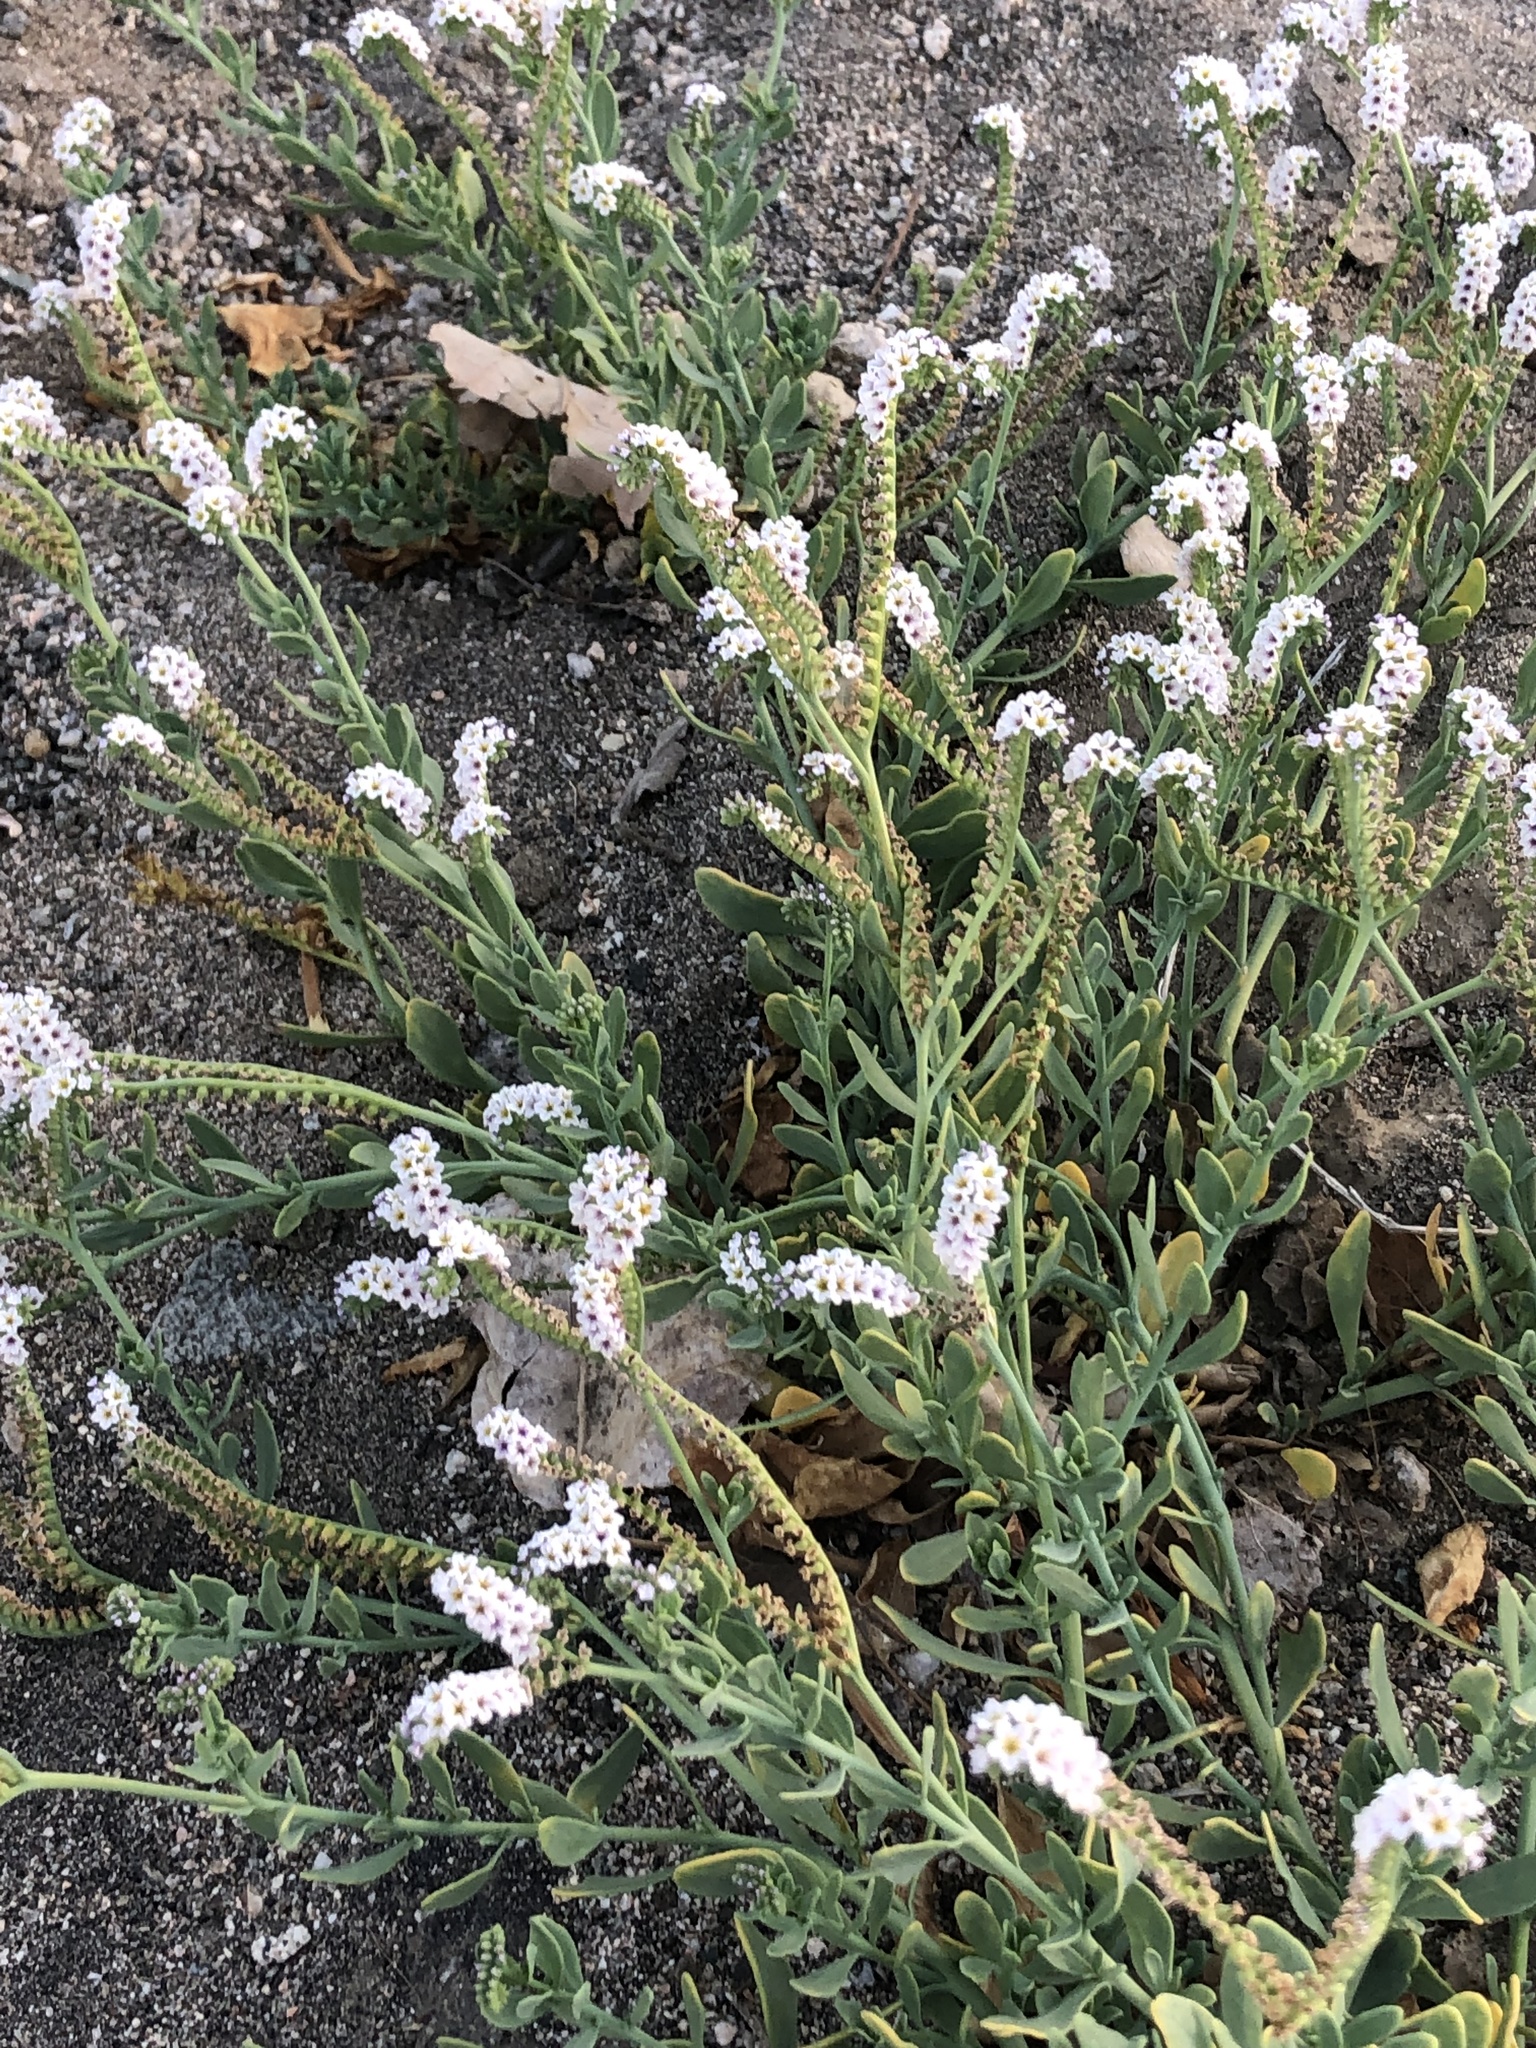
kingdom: Plantae
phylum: Tracheophyta
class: Magnoliopsida
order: Boraginales
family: Heliotropiaceae
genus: Heliotropium
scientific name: Heliotropium curassavicum
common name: Seaside heliotrope
